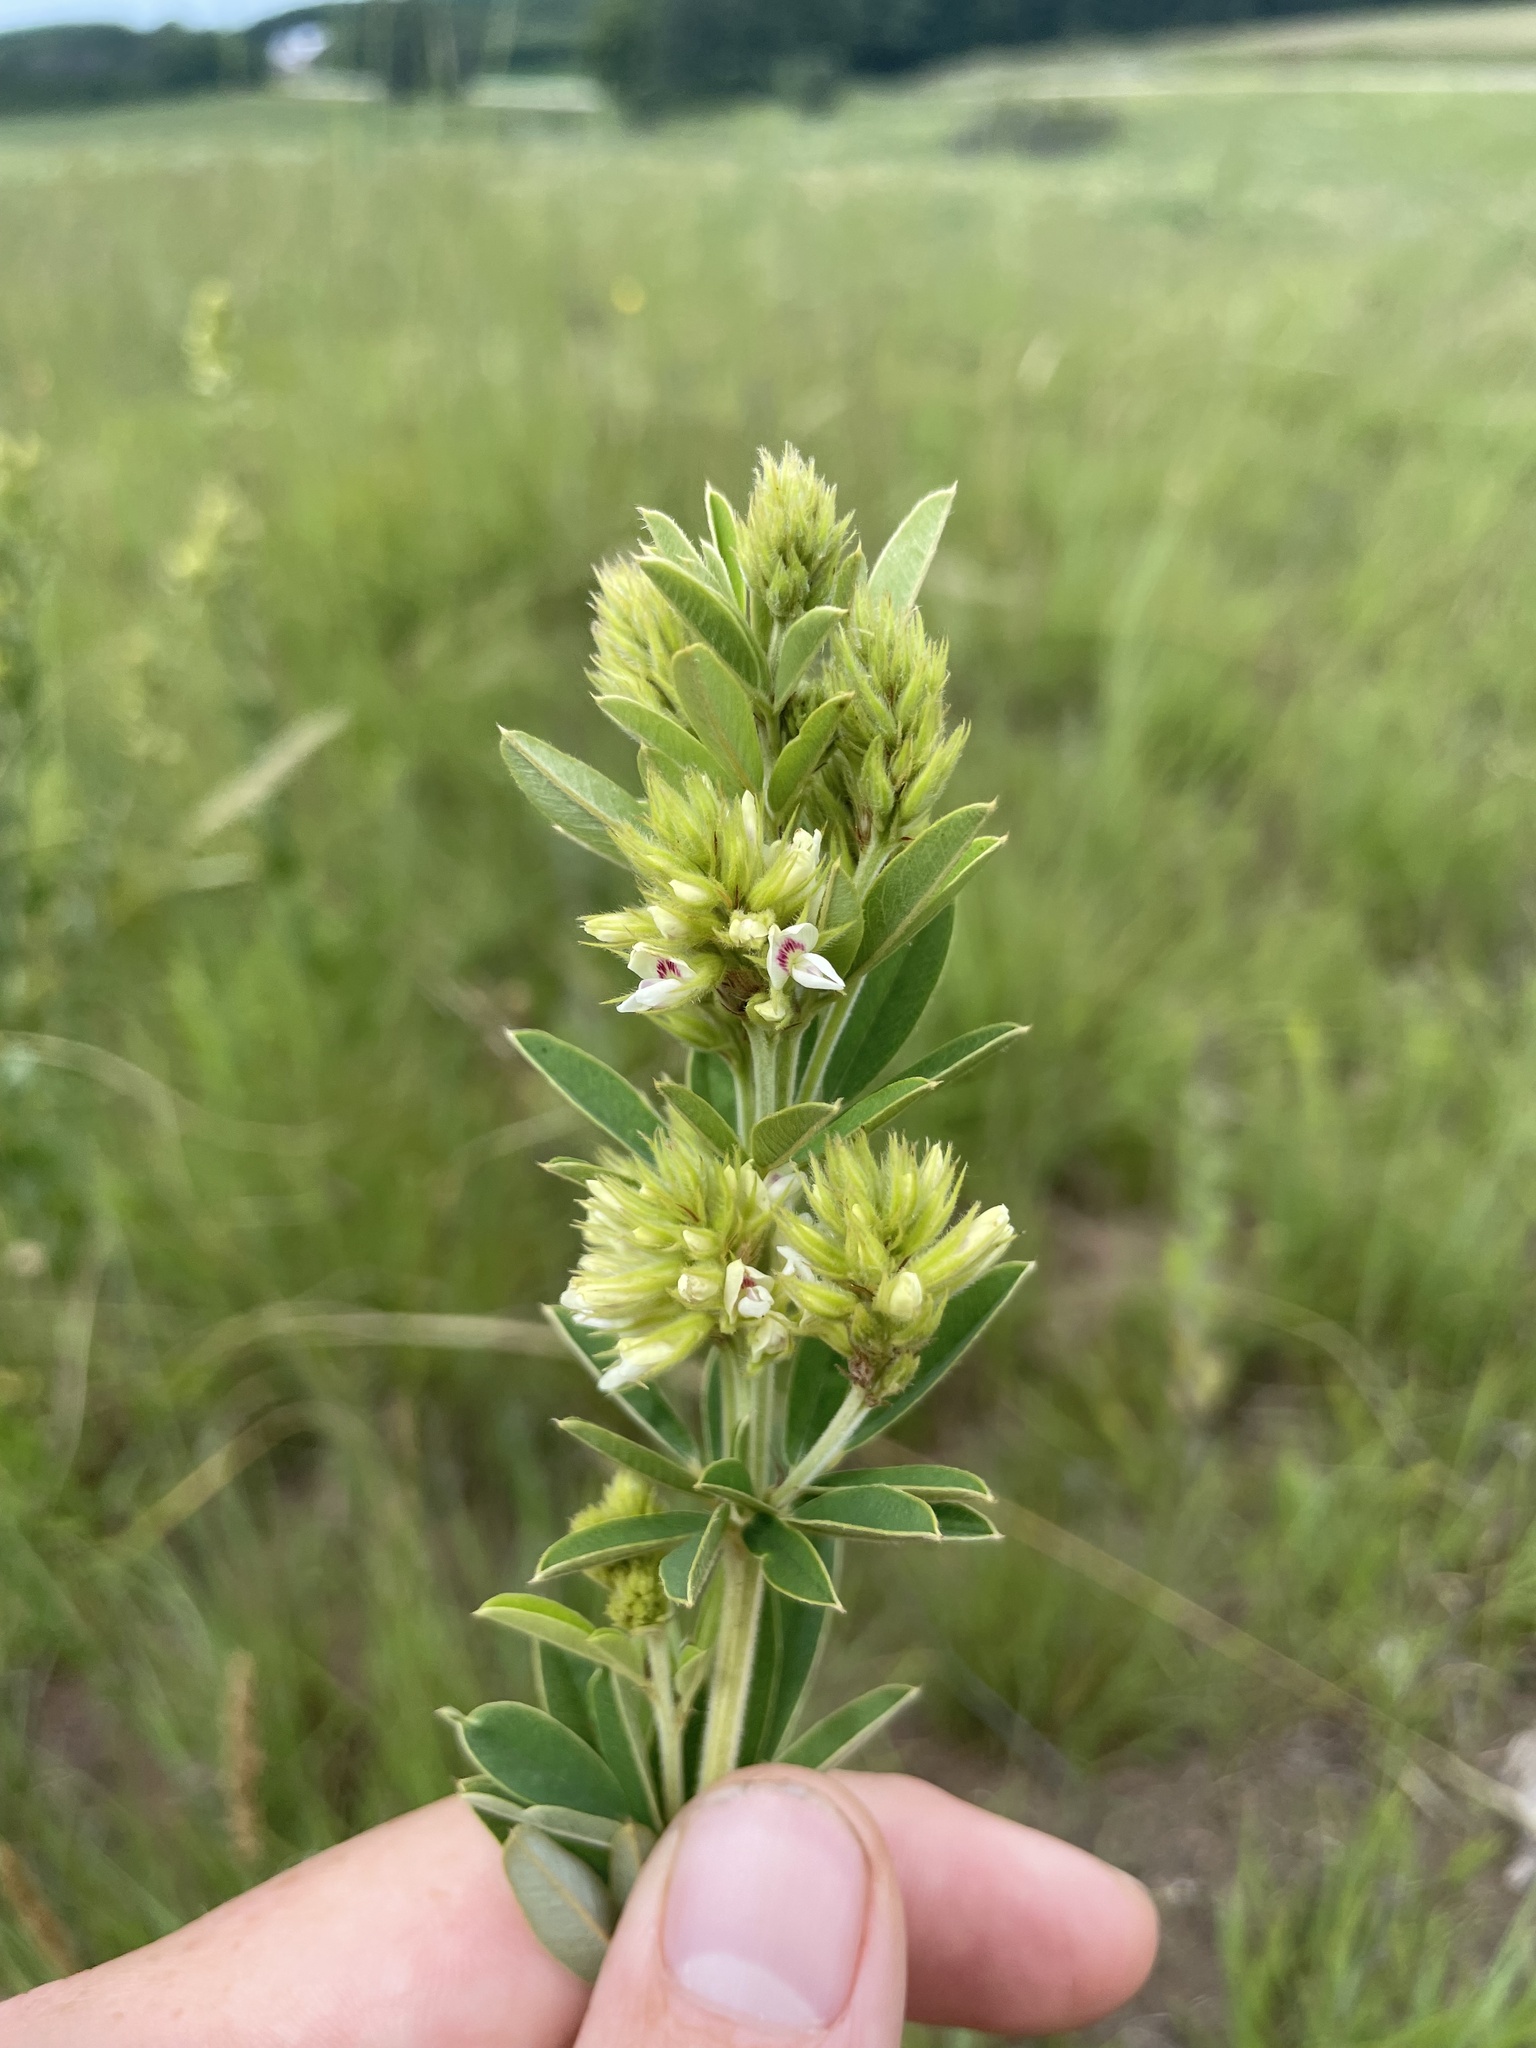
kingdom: Plantae
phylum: Tracheophyta
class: Magnoliopsida
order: Fabales
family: Fabaceae
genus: Lespedeza
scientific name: Lespedeza capitata
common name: Dusty clover
